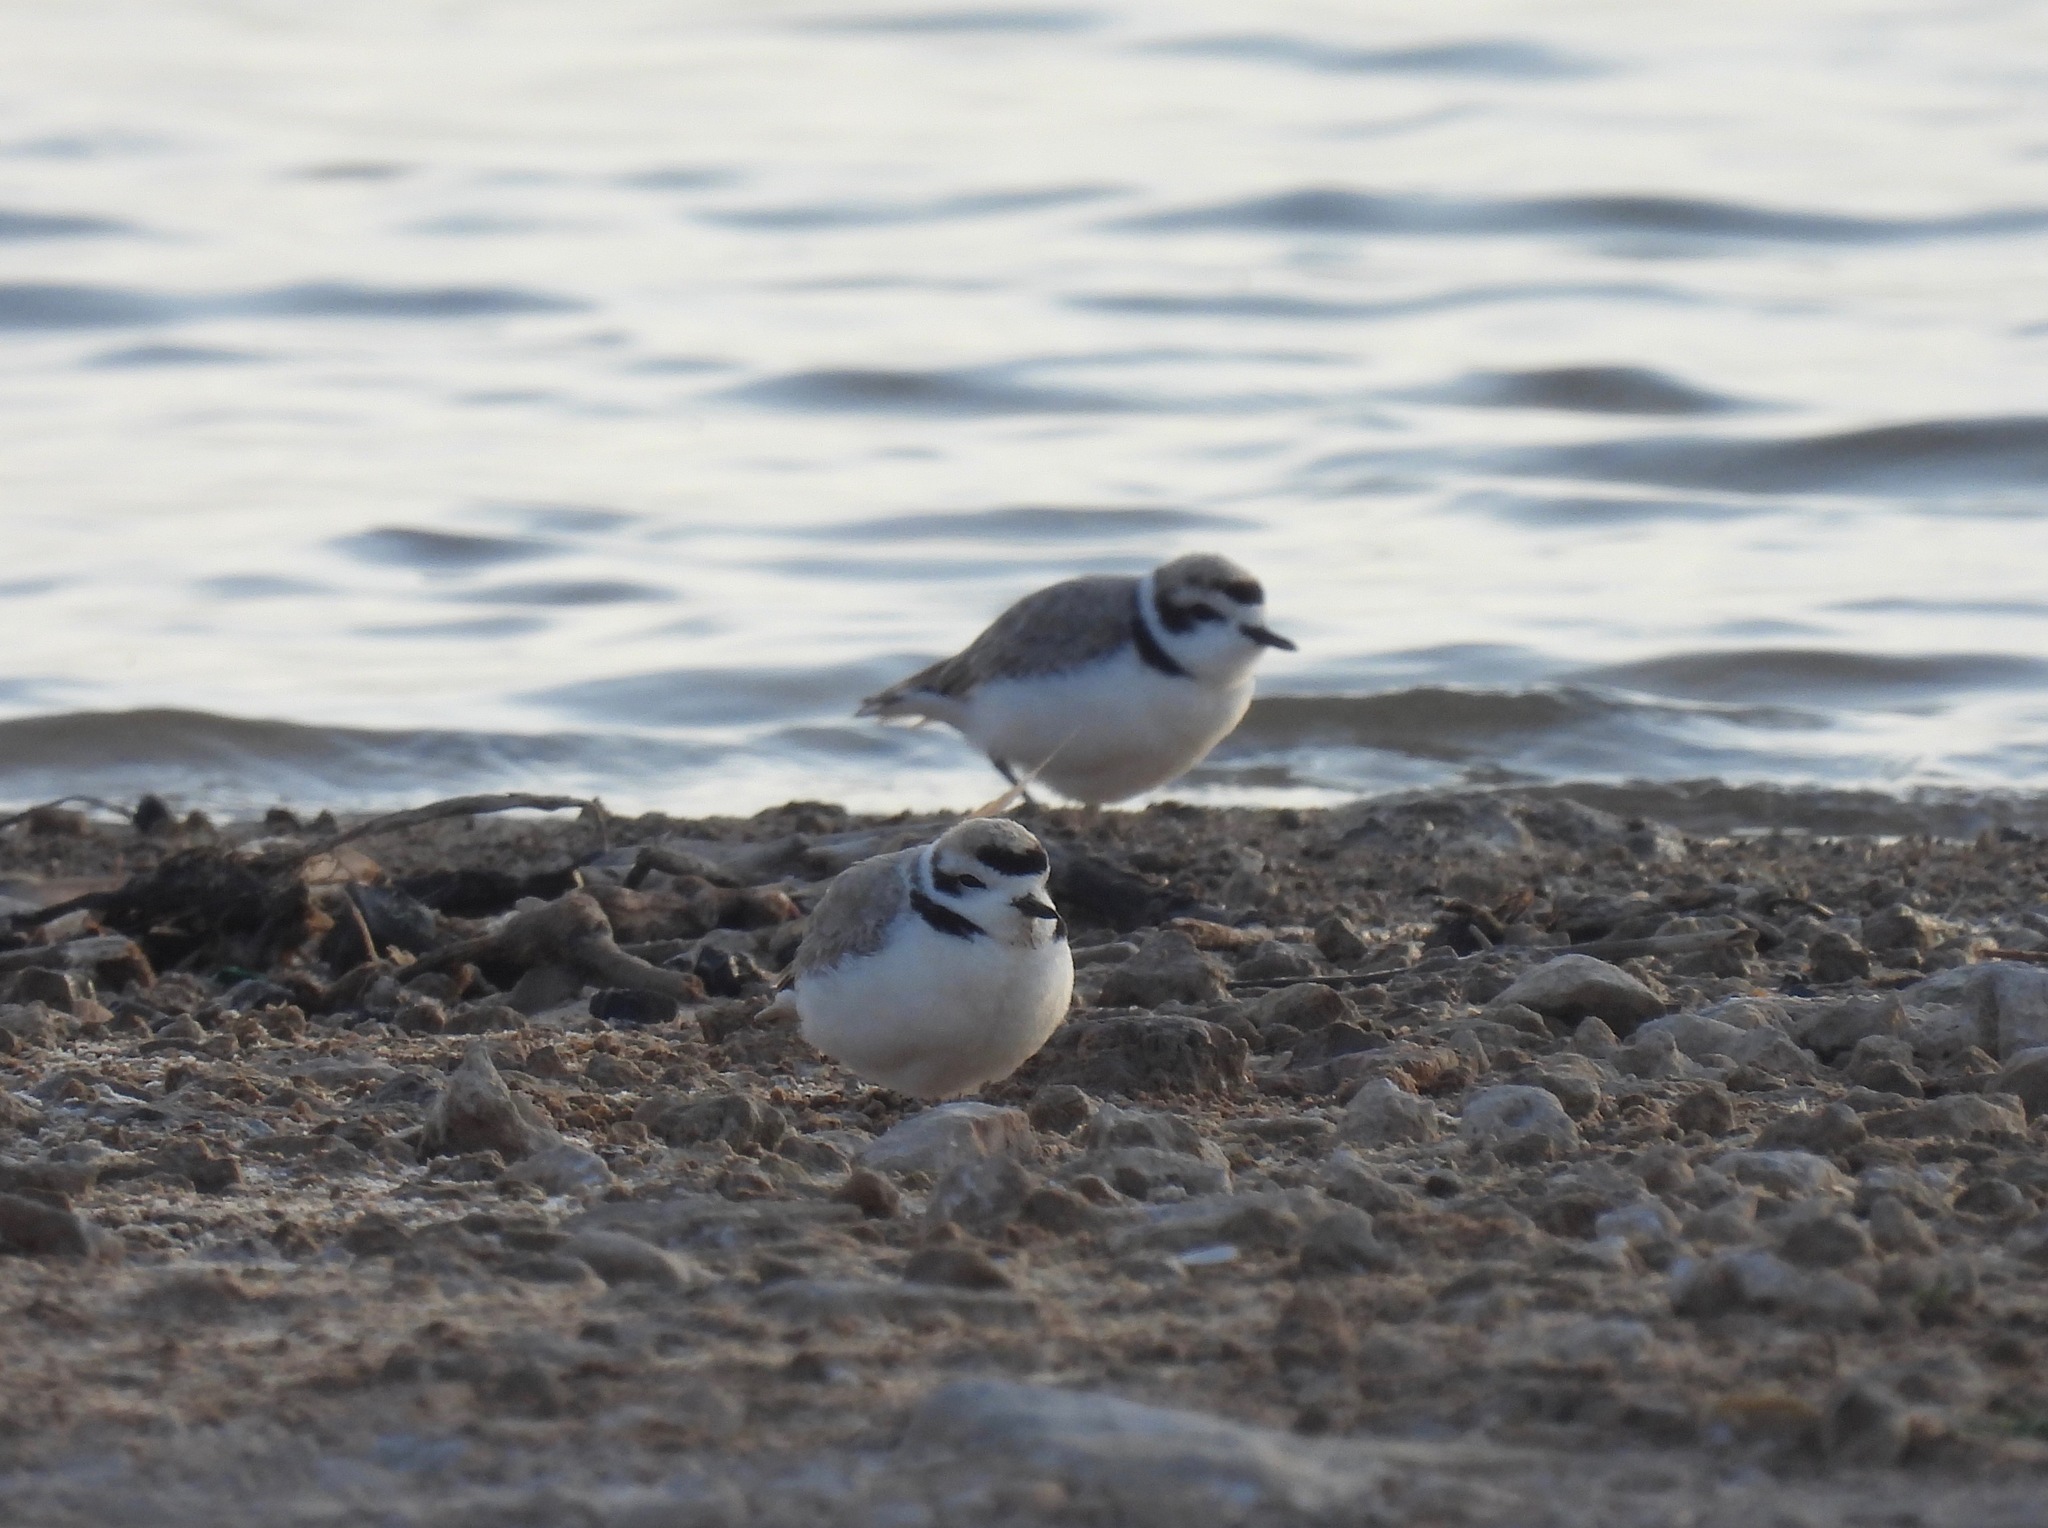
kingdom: Animalia
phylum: Chordata
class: Aves
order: Charadriiformes
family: Charadriidae
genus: Anarhynchus
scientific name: Anarhynchus
